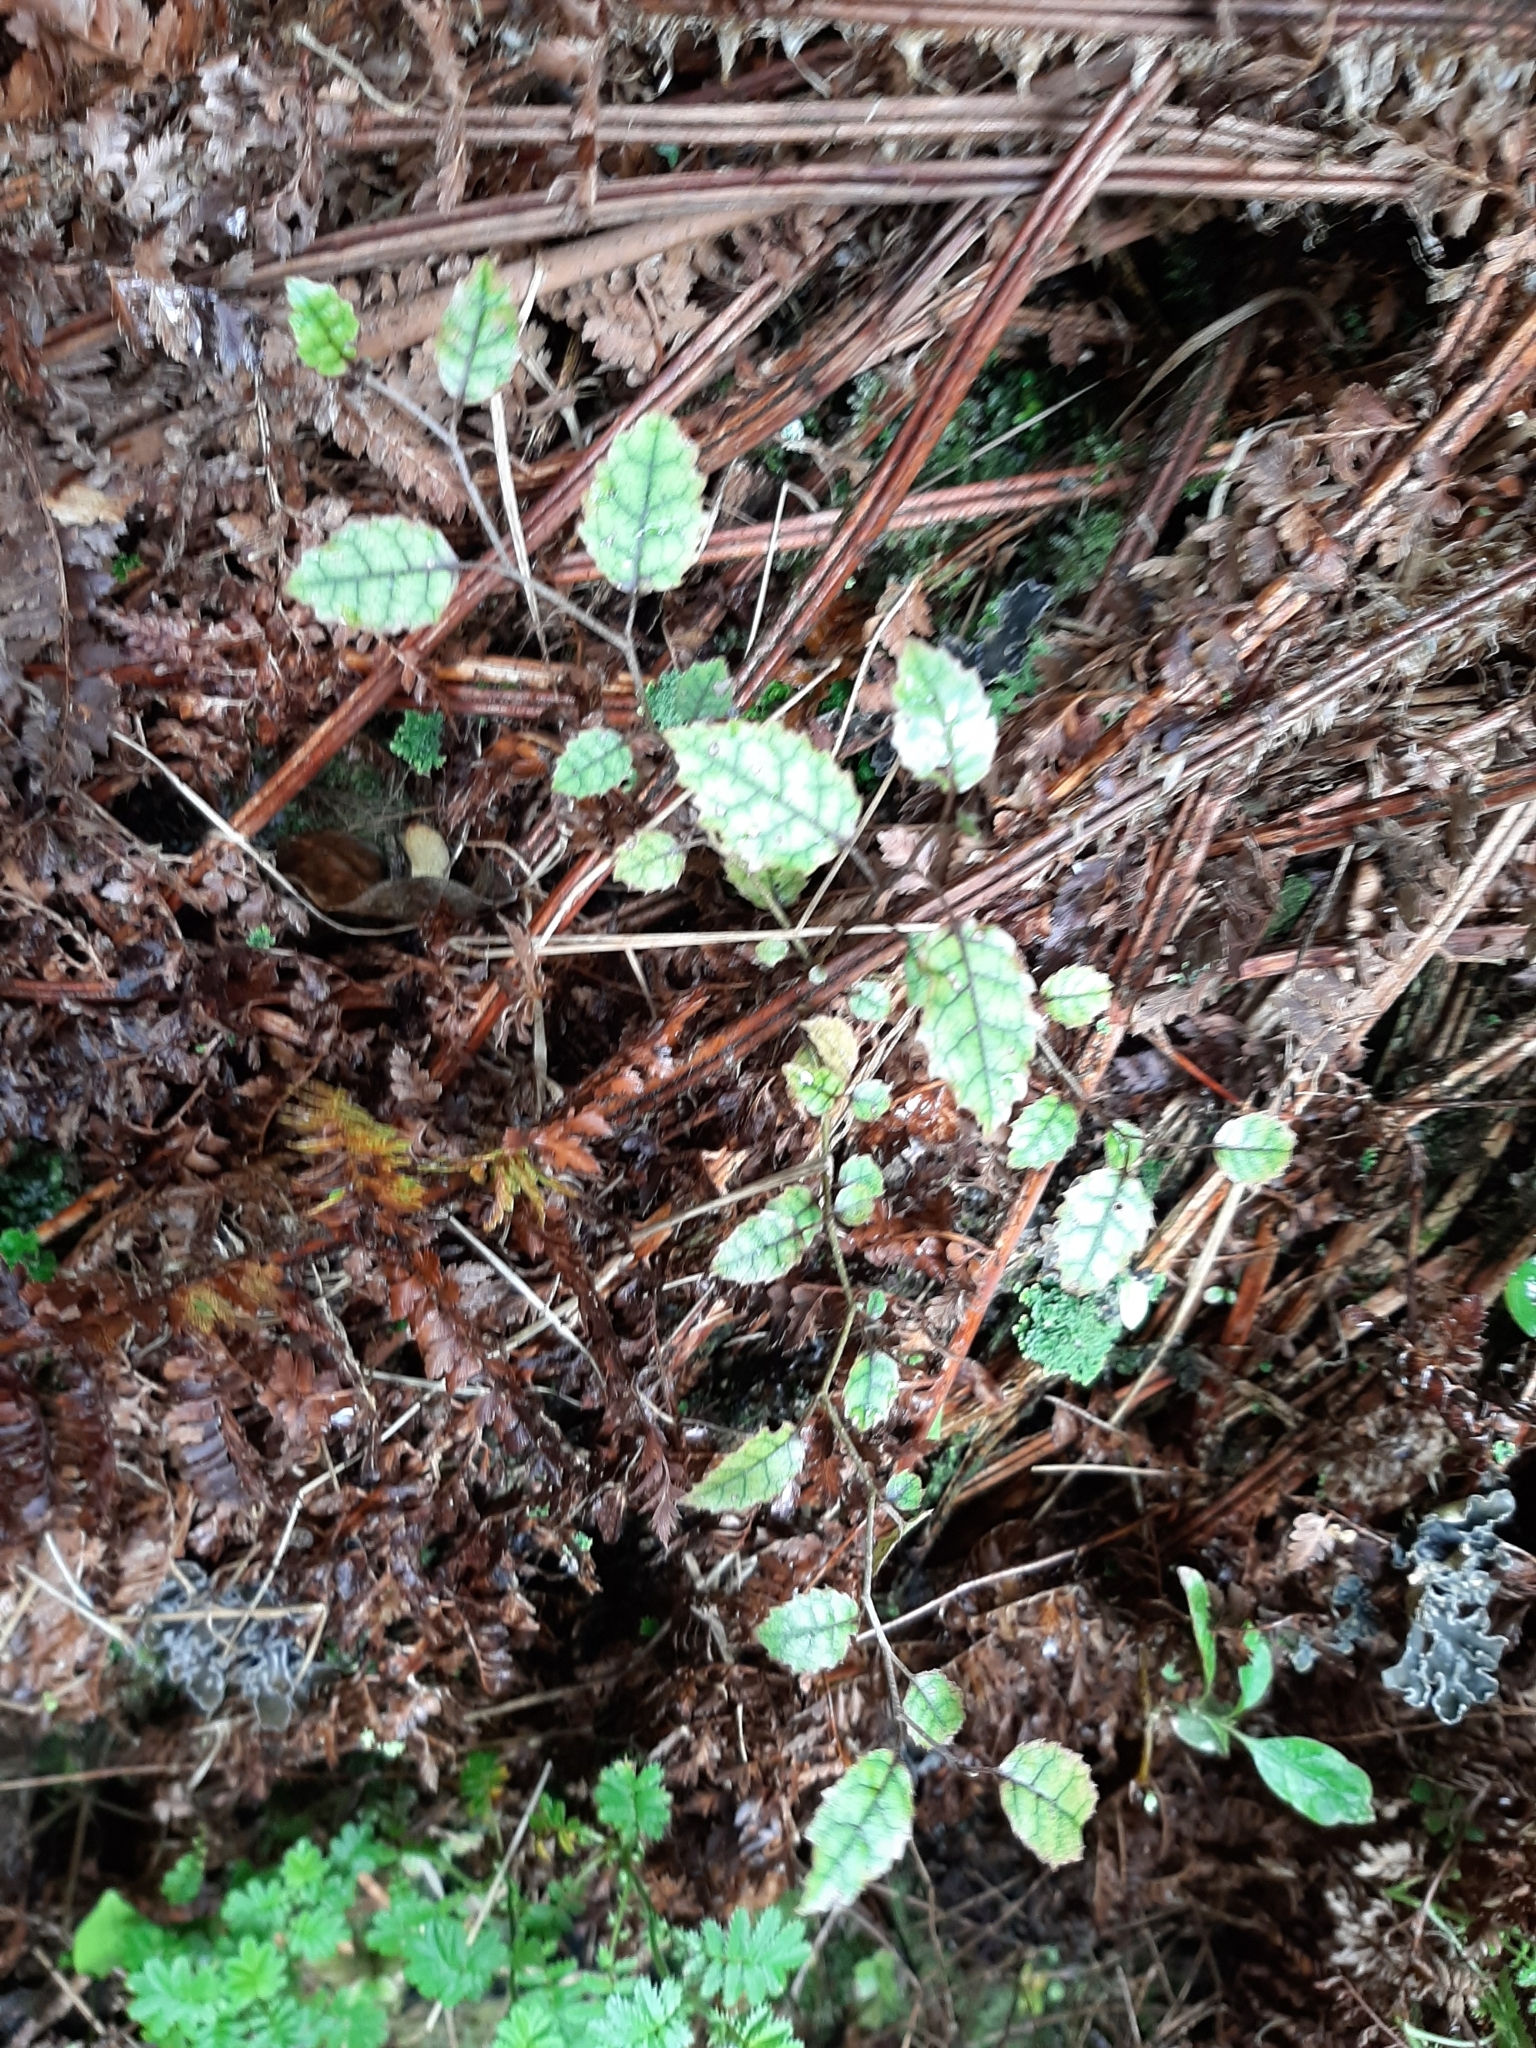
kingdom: Plantae
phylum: Tracheophyta
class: Magnoliopsida
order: Asterales
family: Rousseaceae
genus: Carpodetus
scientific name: Carpodetus serratus
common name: White mapau
